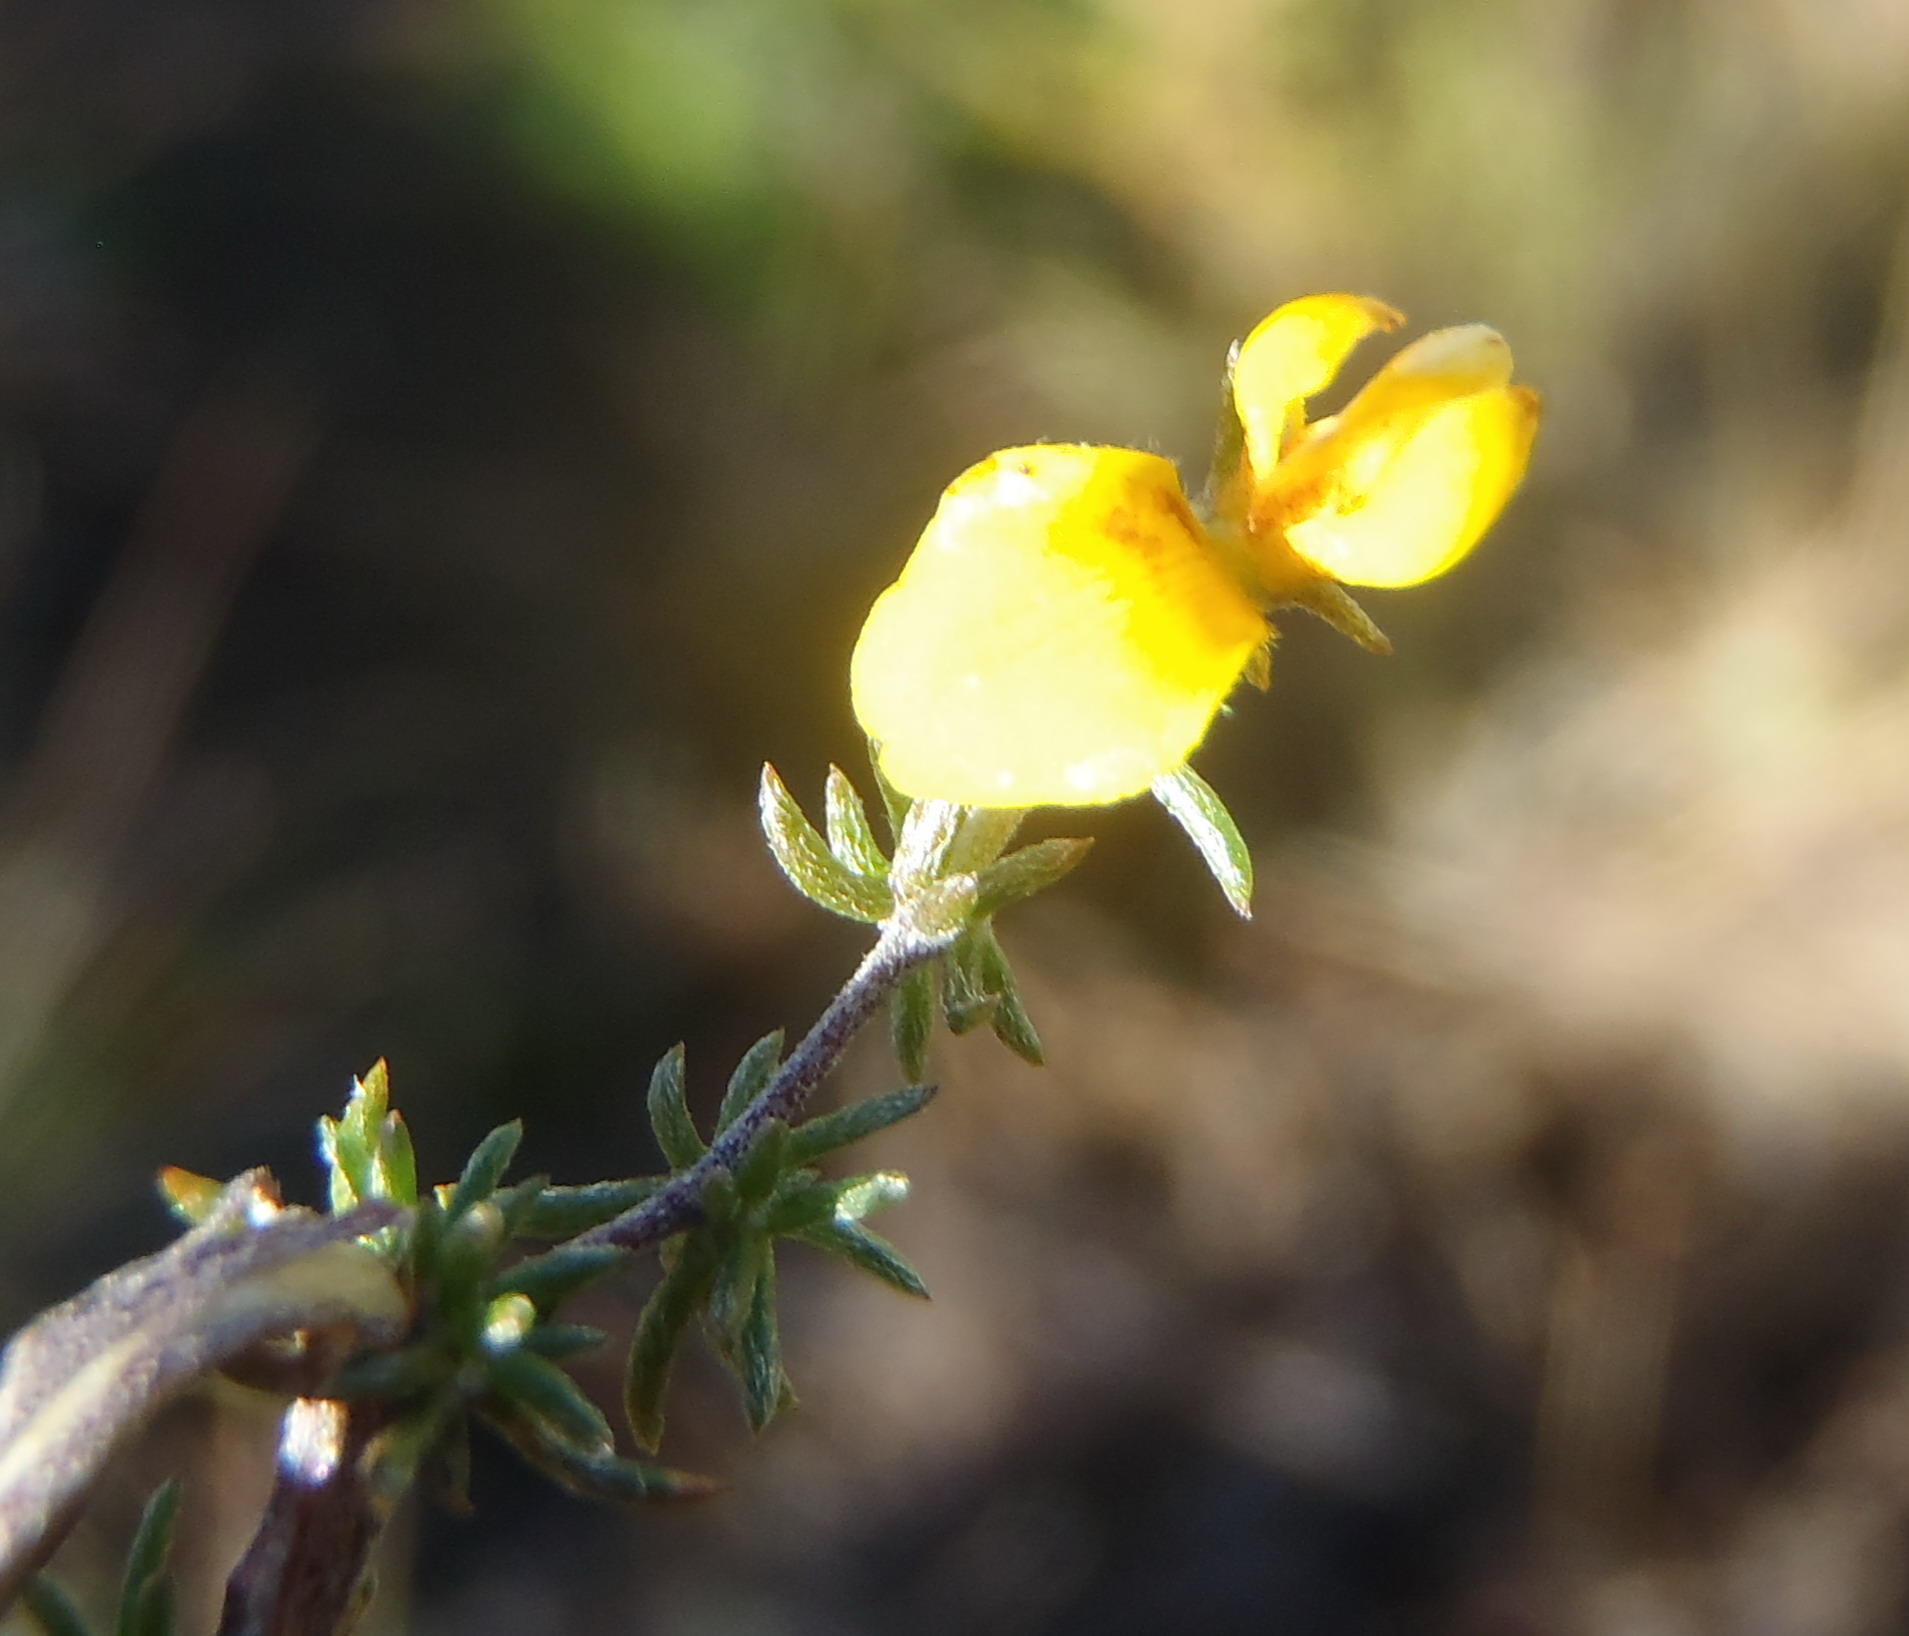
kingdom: Plantae
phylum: Tracheophyta
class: Magnoliopsida
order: Fabales
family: Fabaceae
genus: Aspalathus
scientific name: Aspalathus rubens
